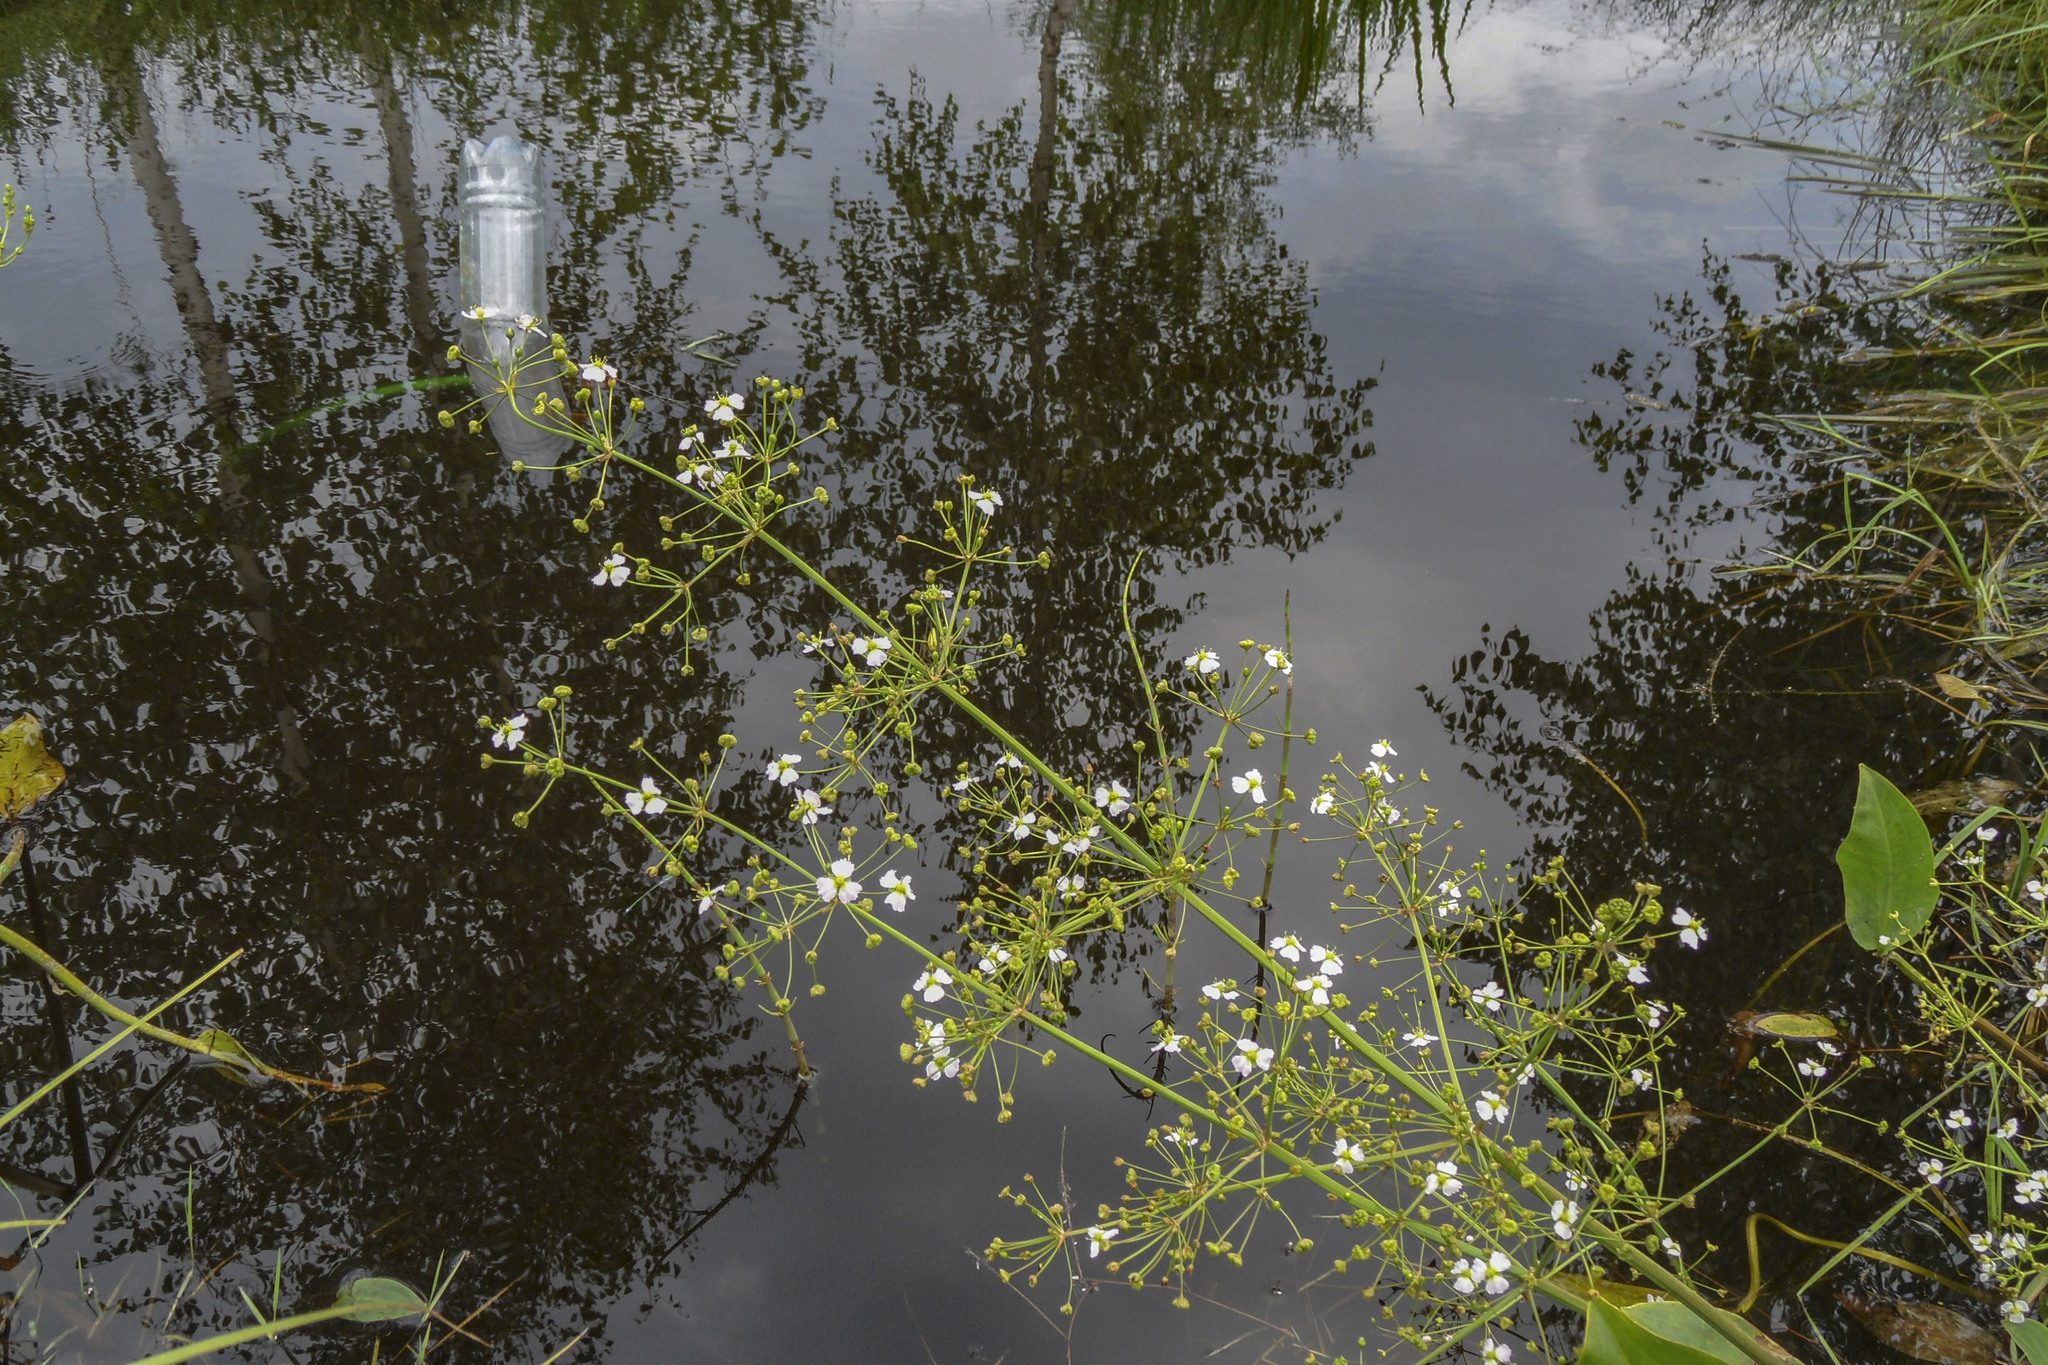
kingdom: Plantae
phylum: Tracheophyta
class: Liliopsida
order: Alismatales
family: Alismataceae
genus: Alisma
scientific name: Alisma plantago-aquatica
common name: Water-plantain
